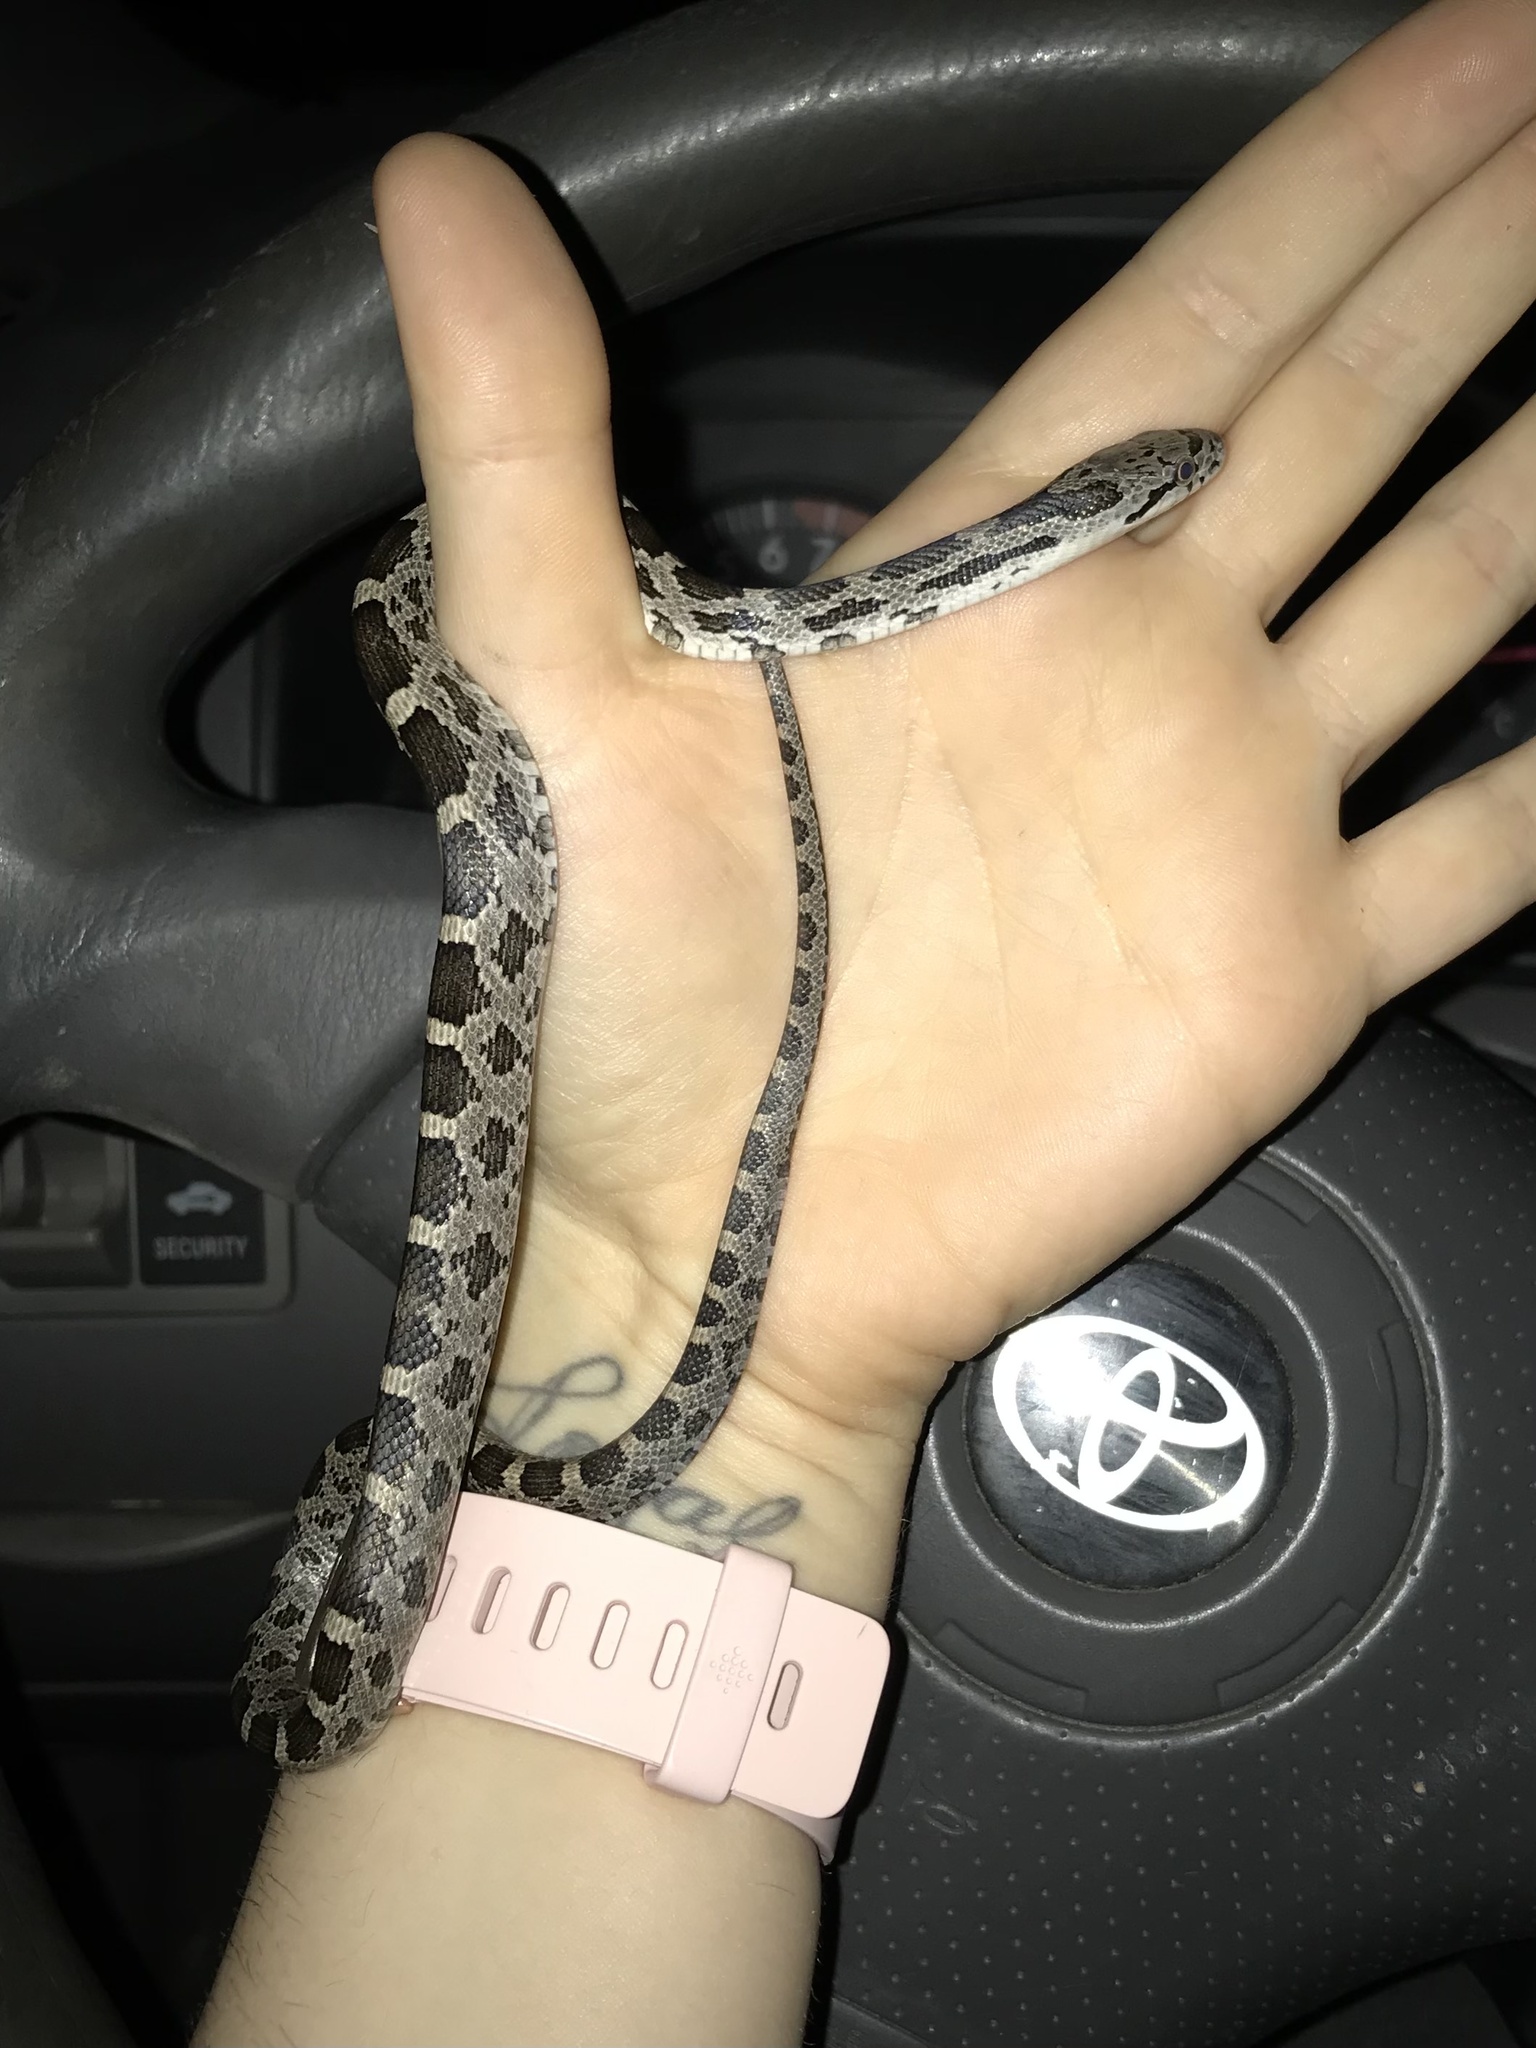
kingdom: Animalia
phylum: Chordata
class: Squamata
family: Colubridae
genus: Pantherophis
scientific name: Pantherophis alleghaniensis
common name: Eastern rat snake
